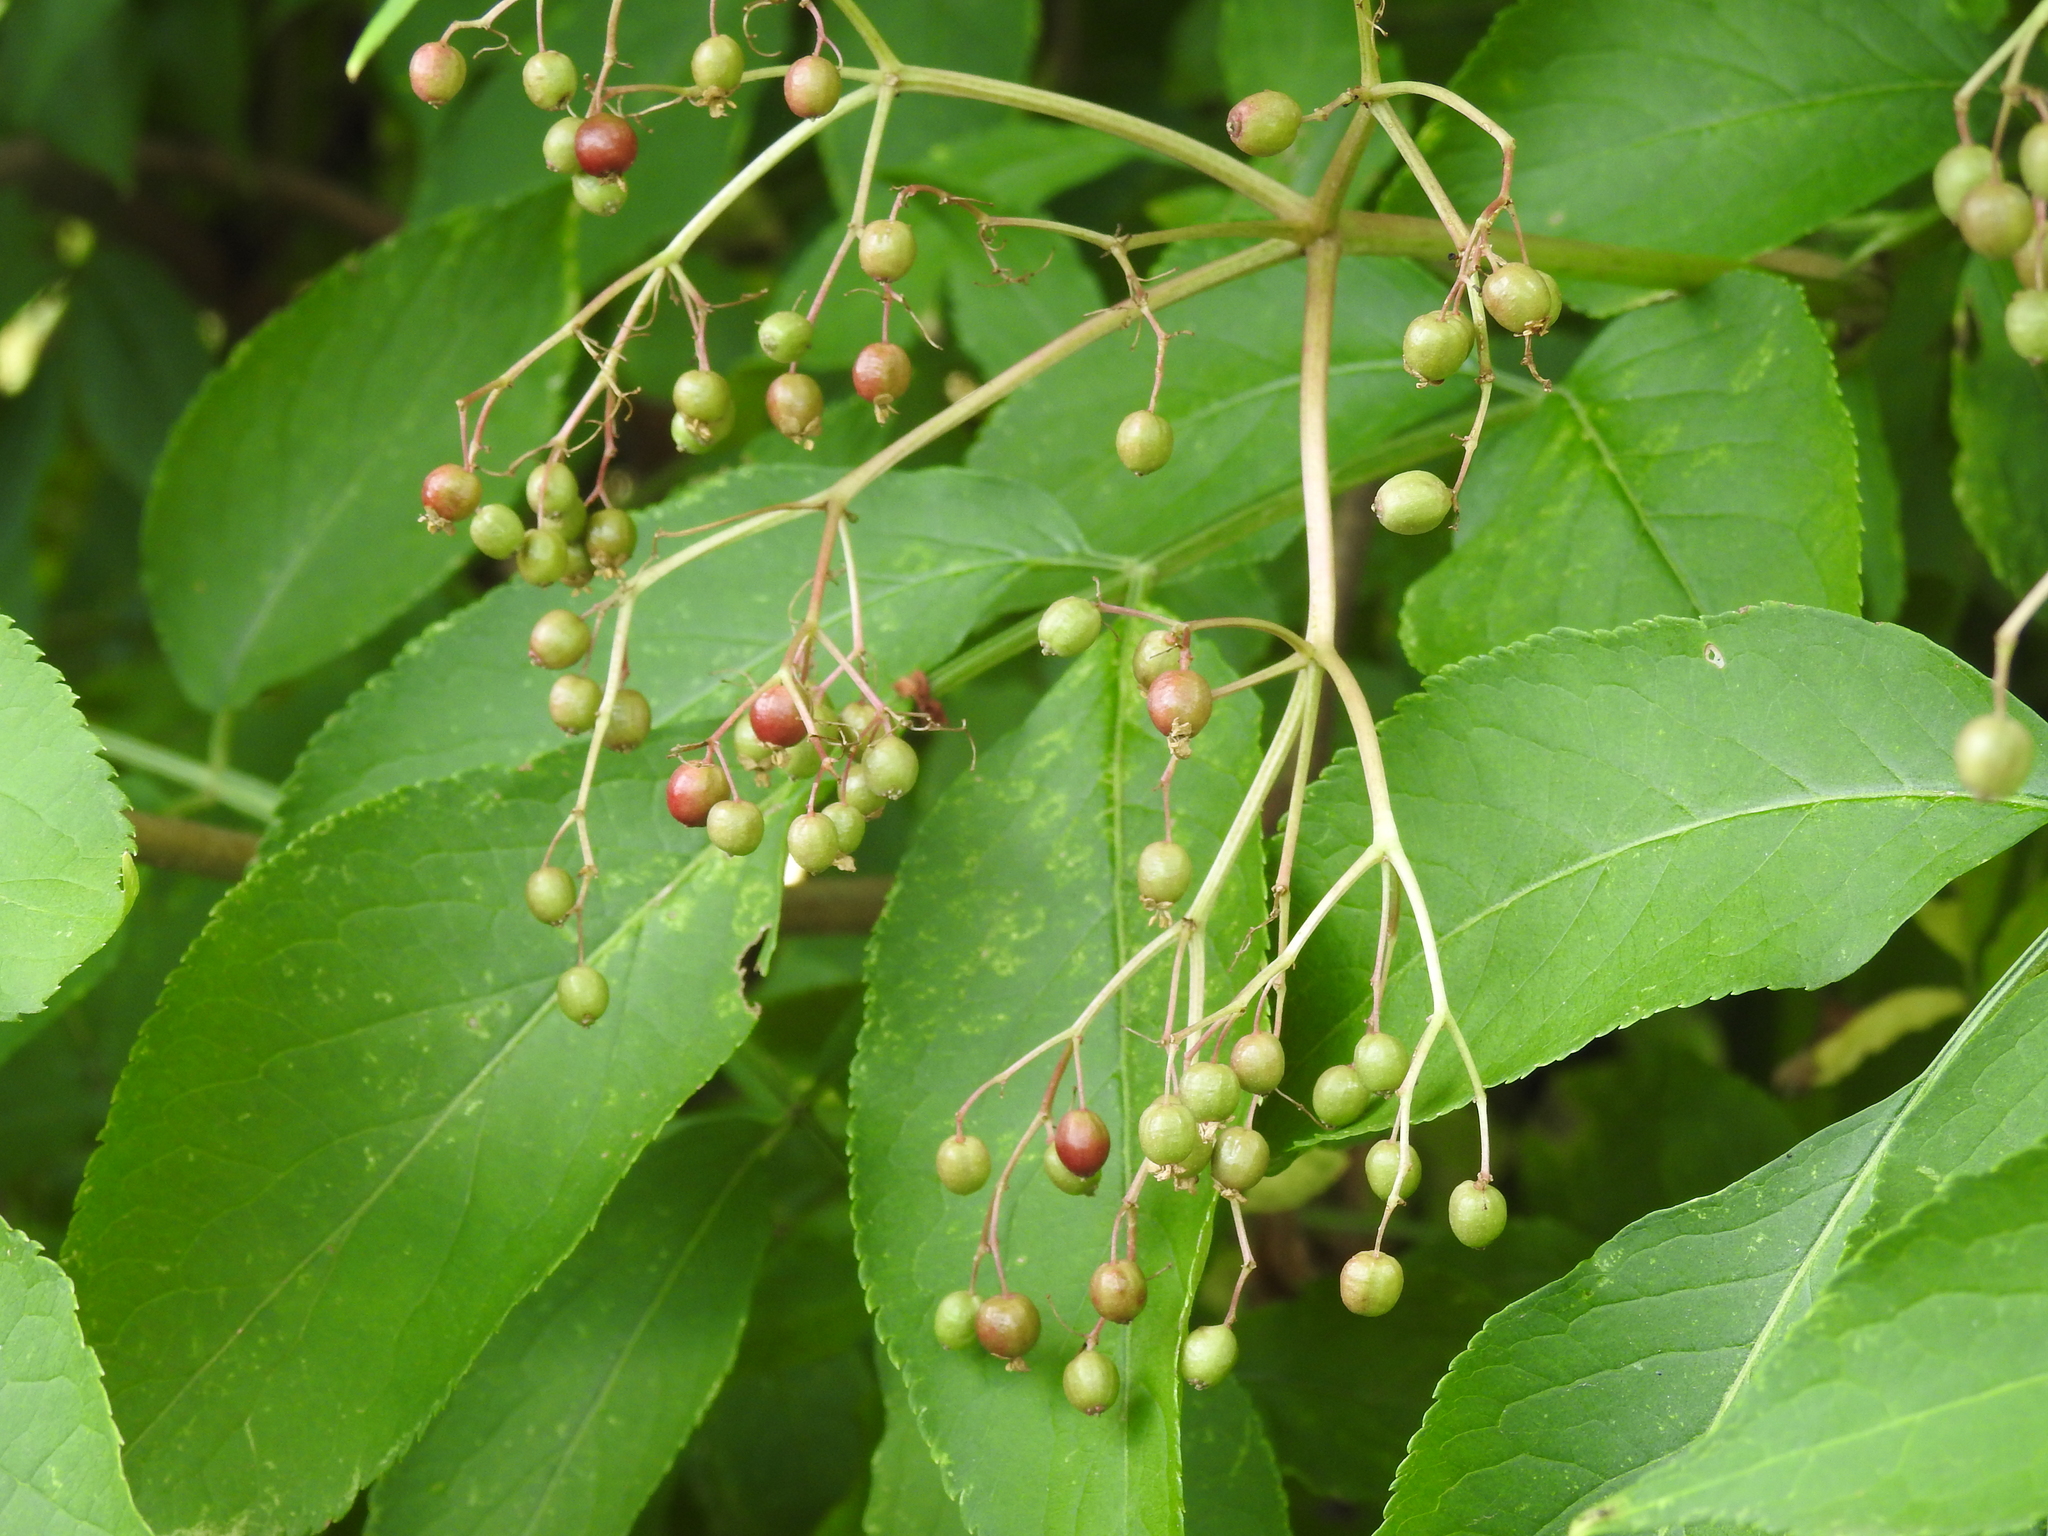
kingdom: Plantae
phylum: Tracheophyta
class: Magnoliopsida
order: Dipsacales
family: Viburnaceae
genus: Sambucus
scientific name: Sambucus nigra
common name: Elder
